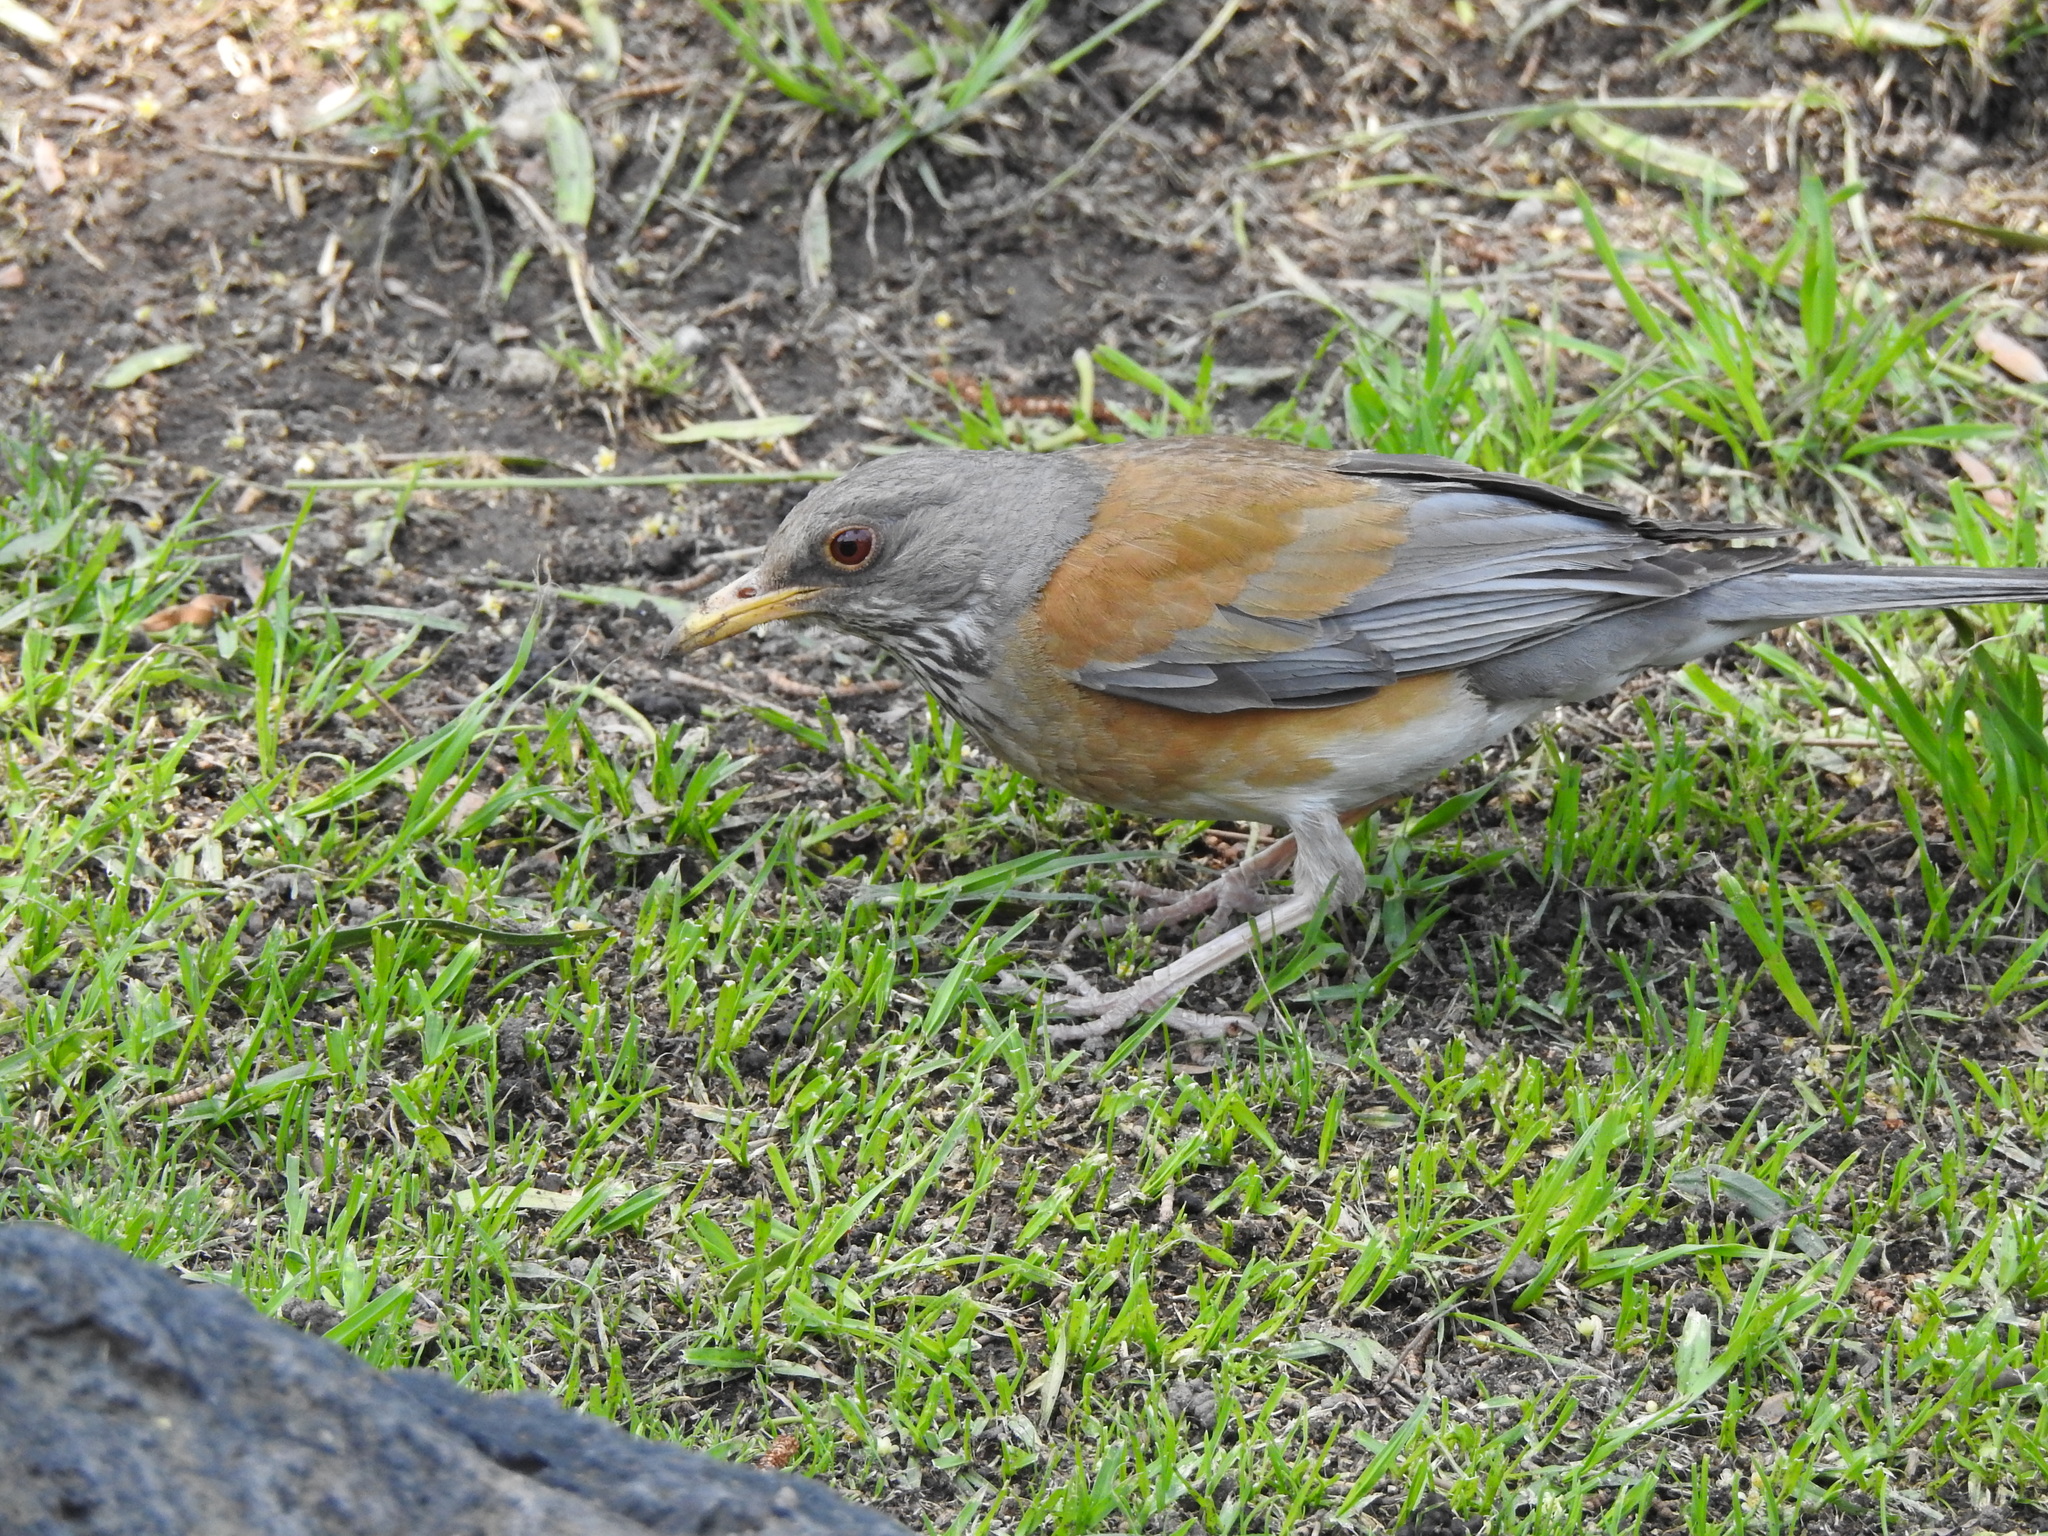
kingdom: Animalia
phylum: Chordata
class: Aves
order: Passeriformes
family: Turdidae
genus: Turdus
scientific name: Turdus rufopalliatus
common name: Rufous-backed robin
